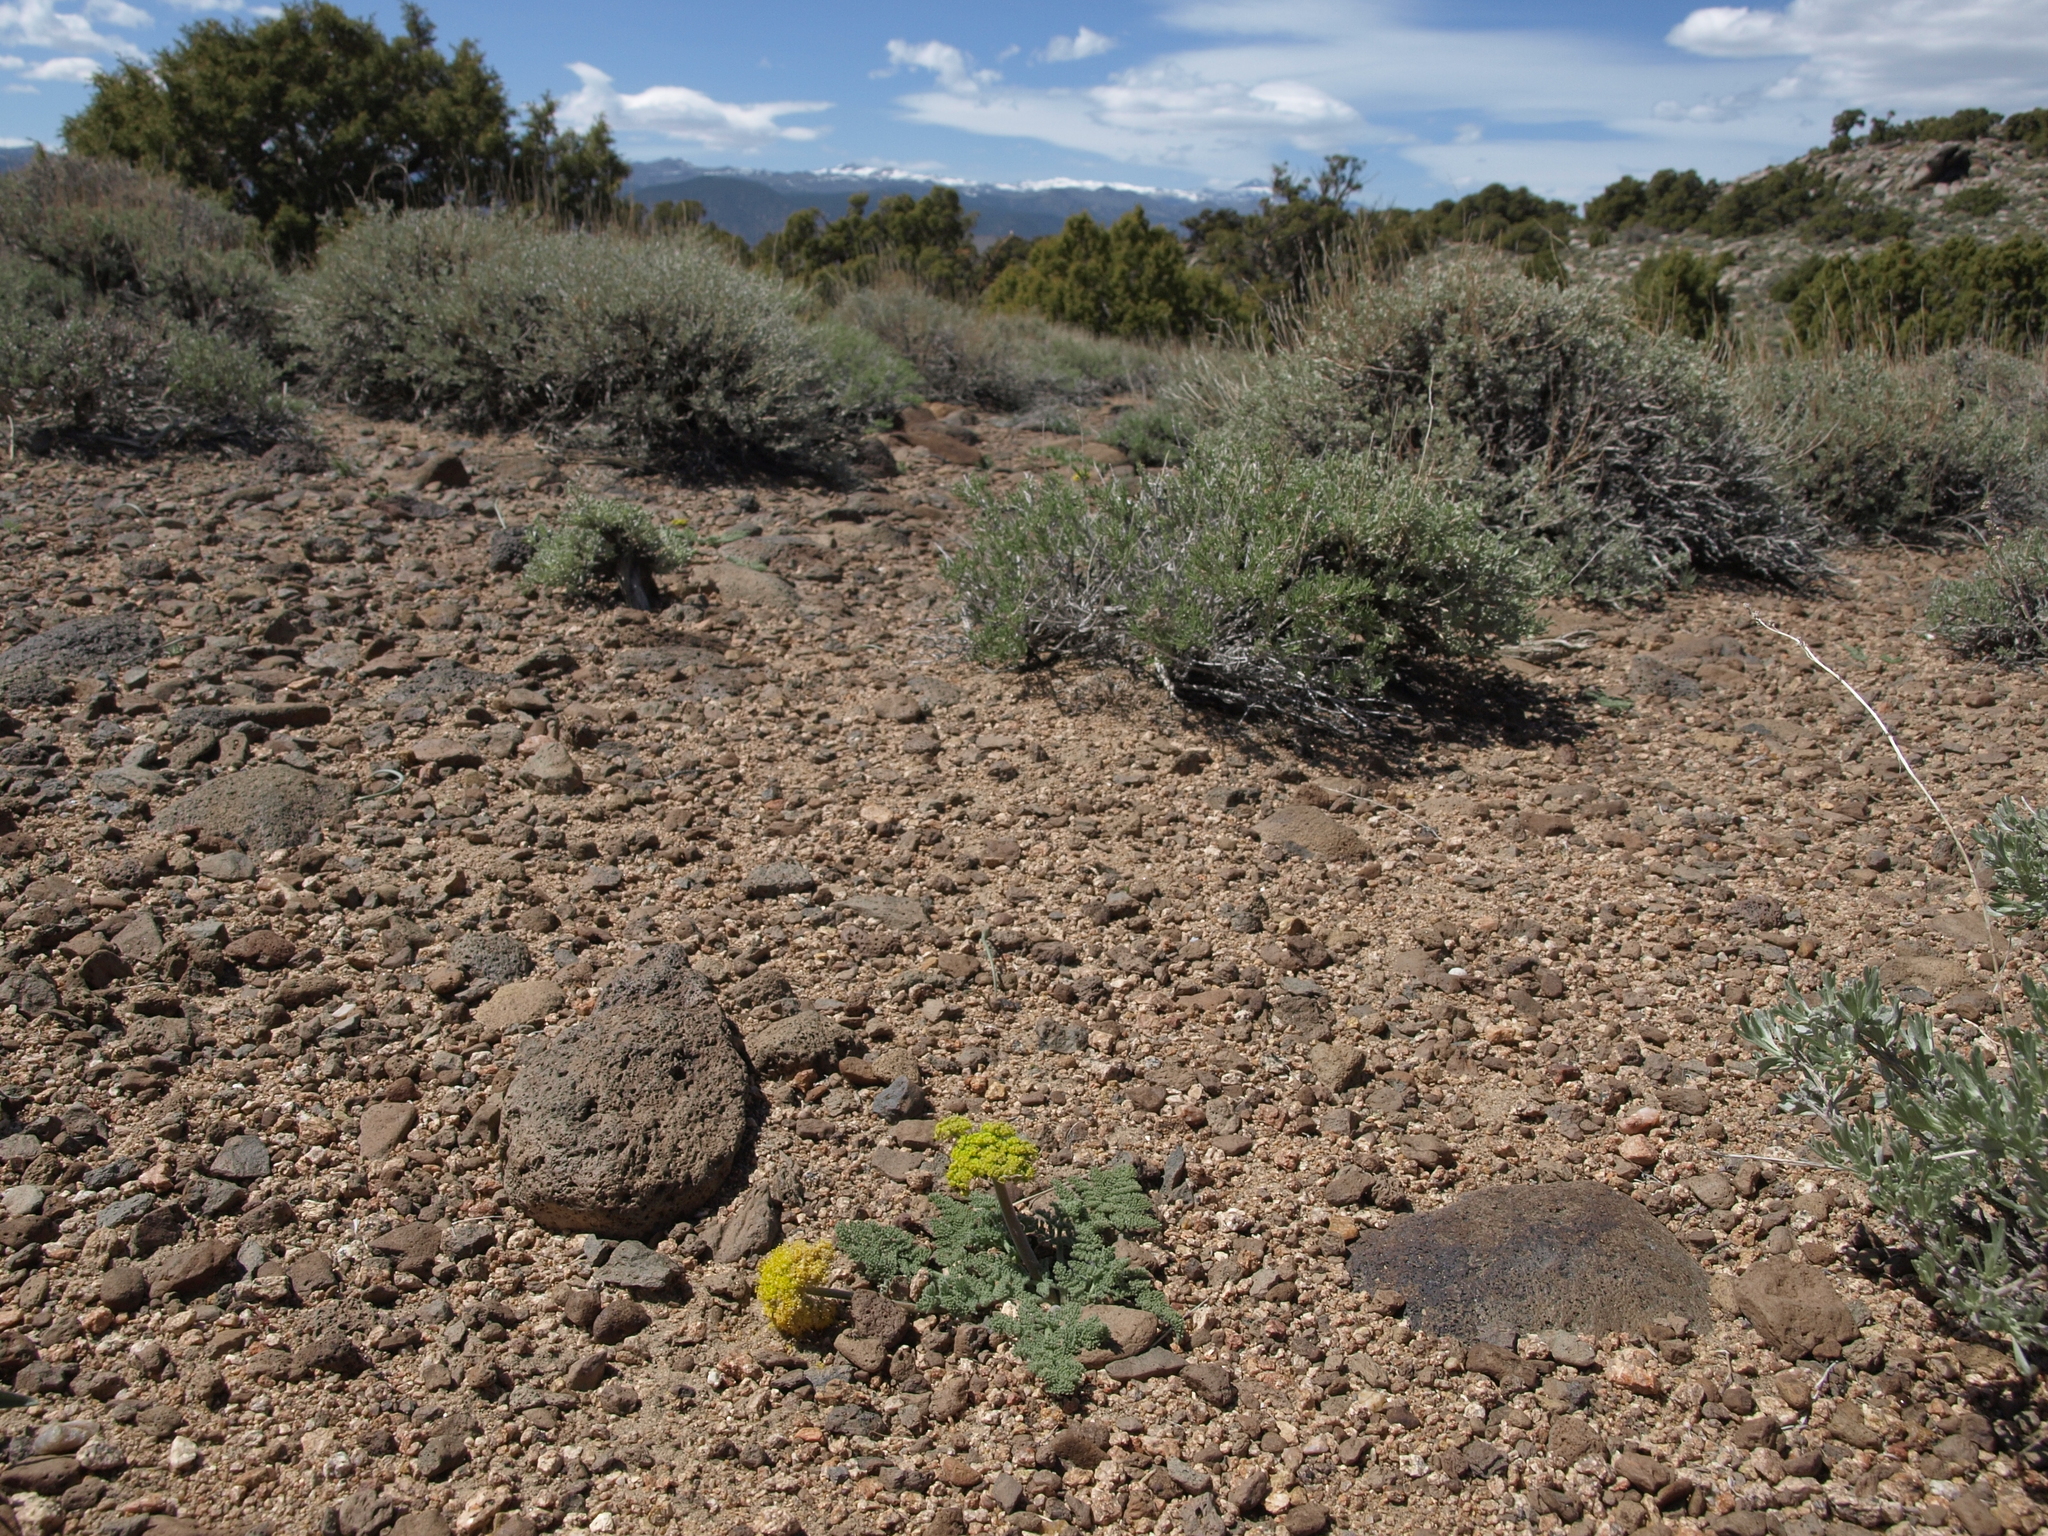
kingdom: Plantae
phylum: Tracheophyta
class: Magnoliopsida
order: Apiales
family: Apiaceae
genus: Lomatium
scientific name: Lomatium foeniculaceum
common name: Desert-parsley
